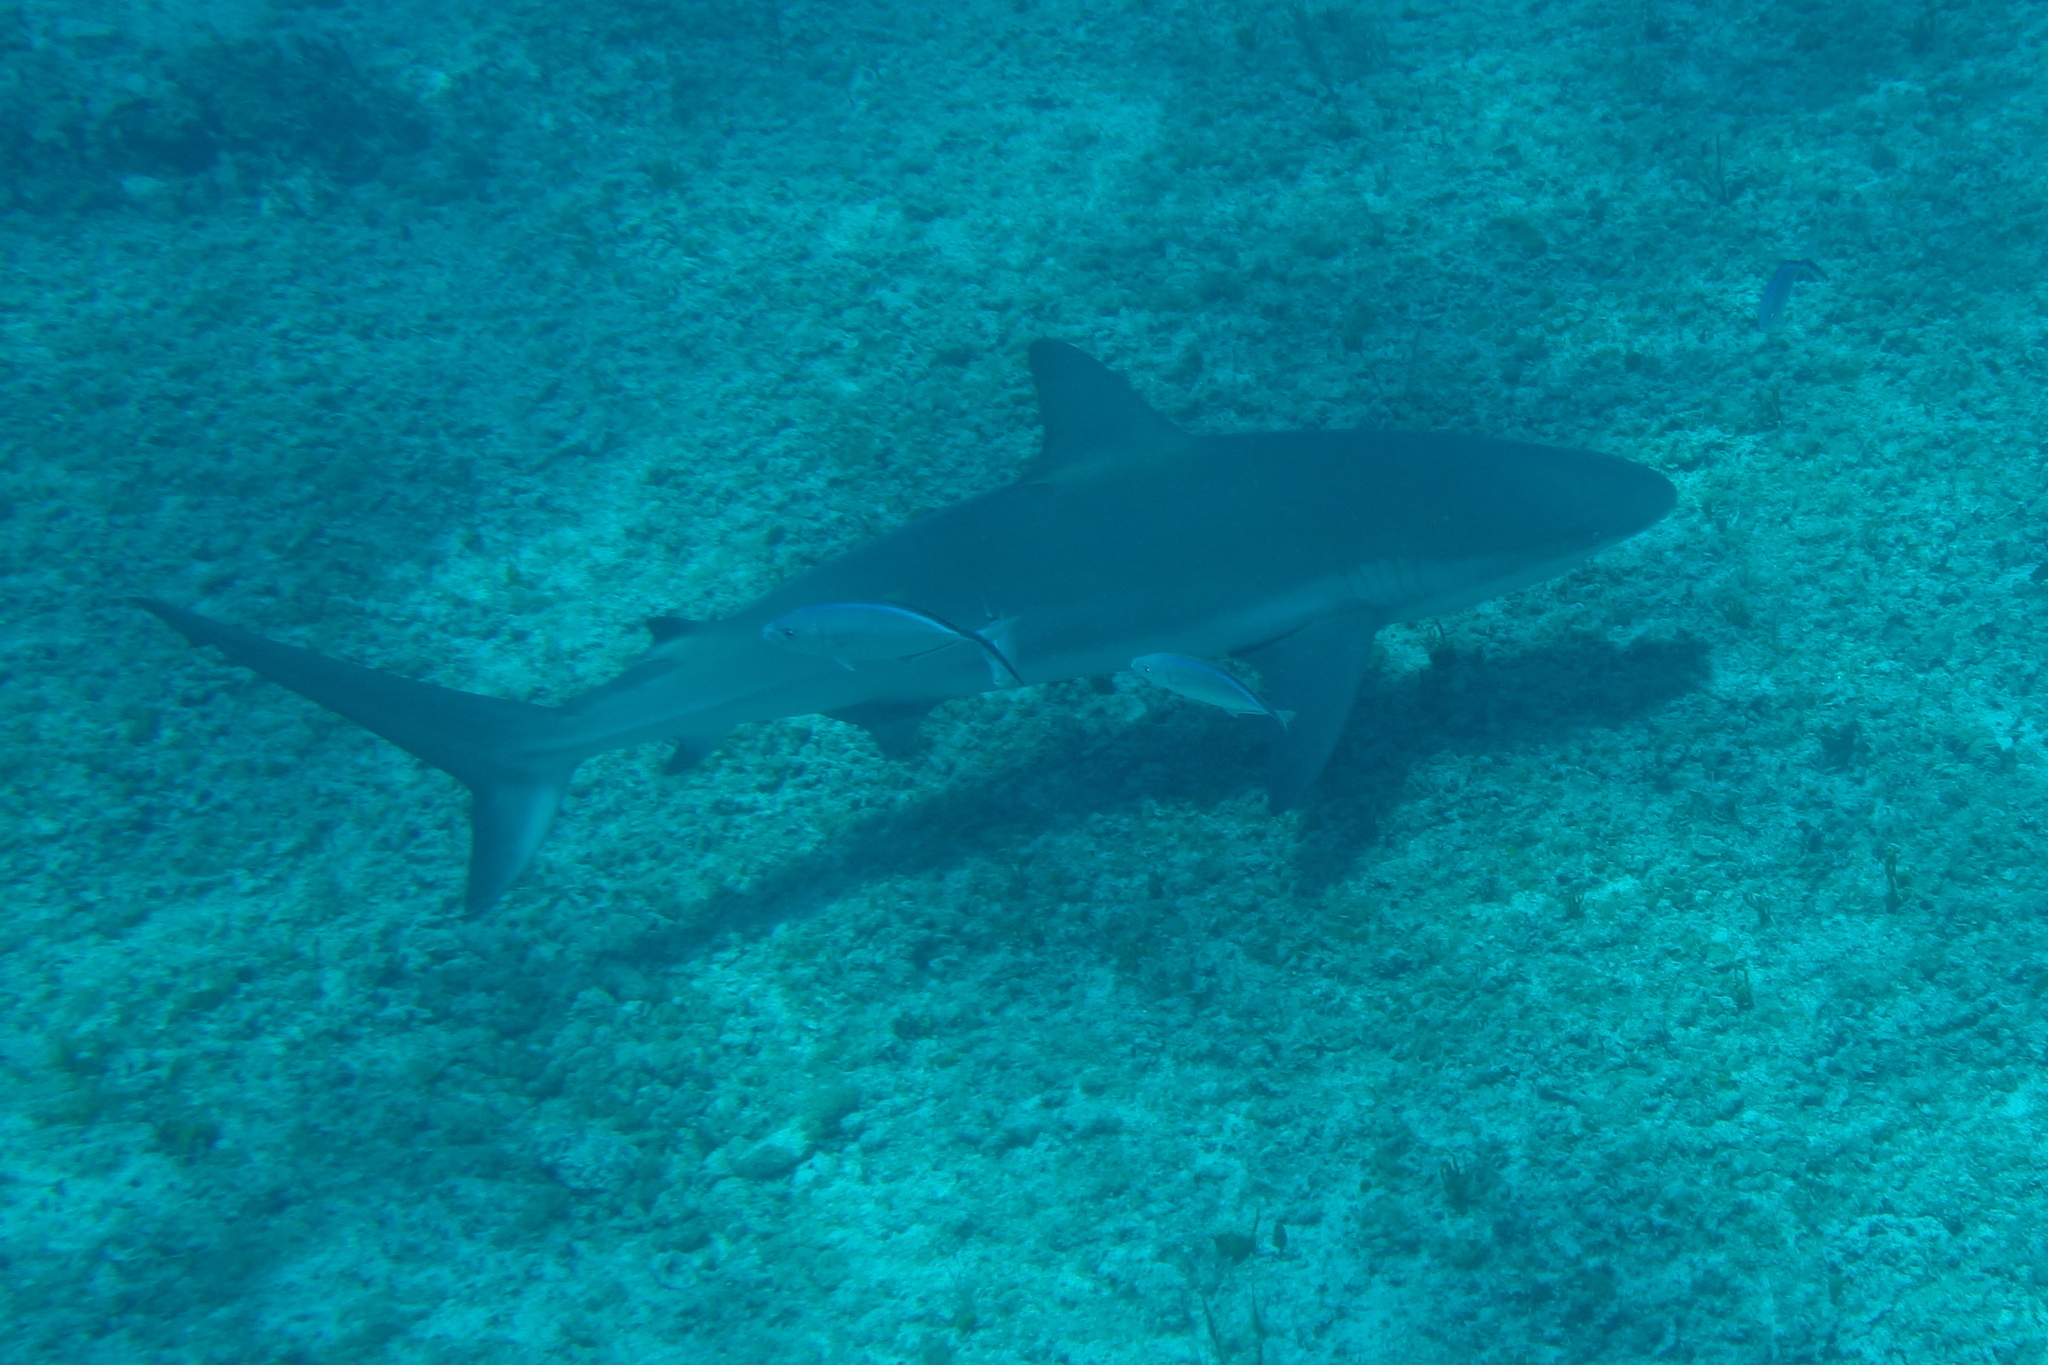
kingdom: Animalia
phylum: Chordata
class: Elasmobranchii
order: Carcharhiniformes
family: Carcharhinidae
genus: Carcharhinus
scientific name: Carcharhinus perezii
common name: Reef shark
